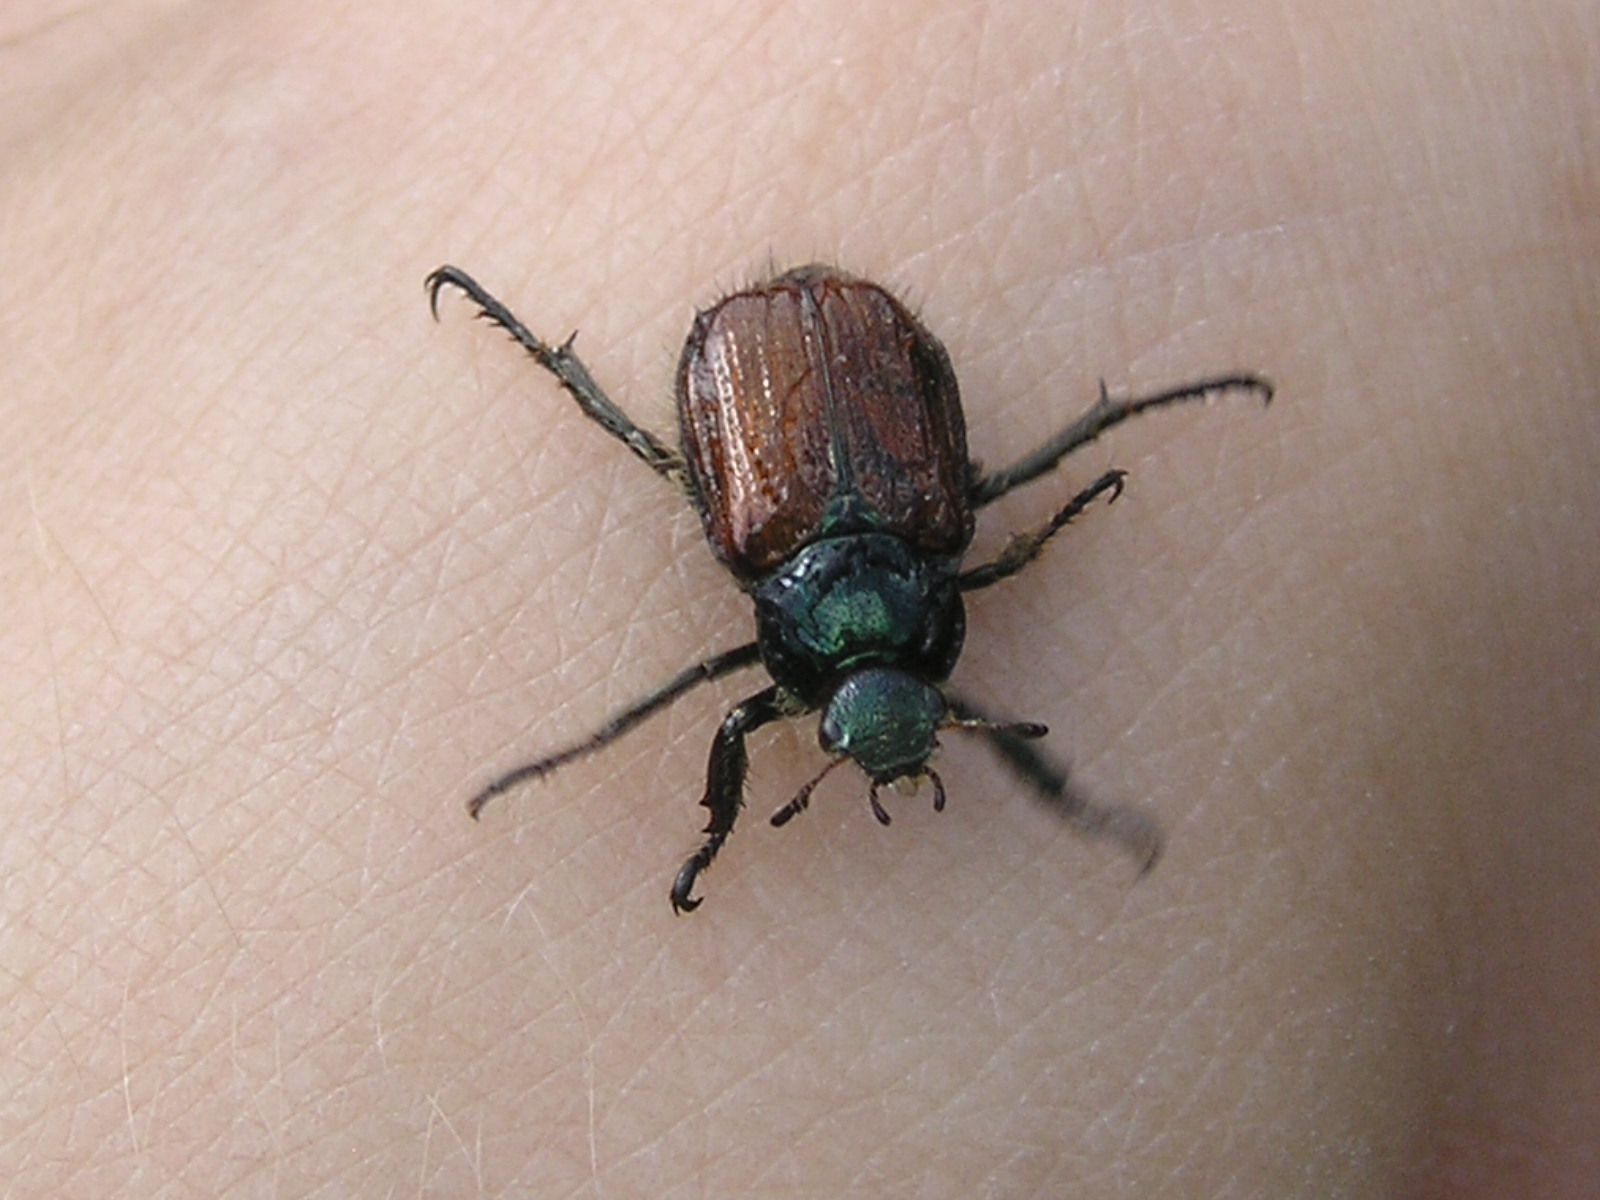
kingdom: Animalia
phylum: Arthropoda
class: Insecta
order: Coleoptera
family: Scarabaeidae
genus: Phyllopertha
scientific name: Phyllopertha horticola
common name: Garden chafer
